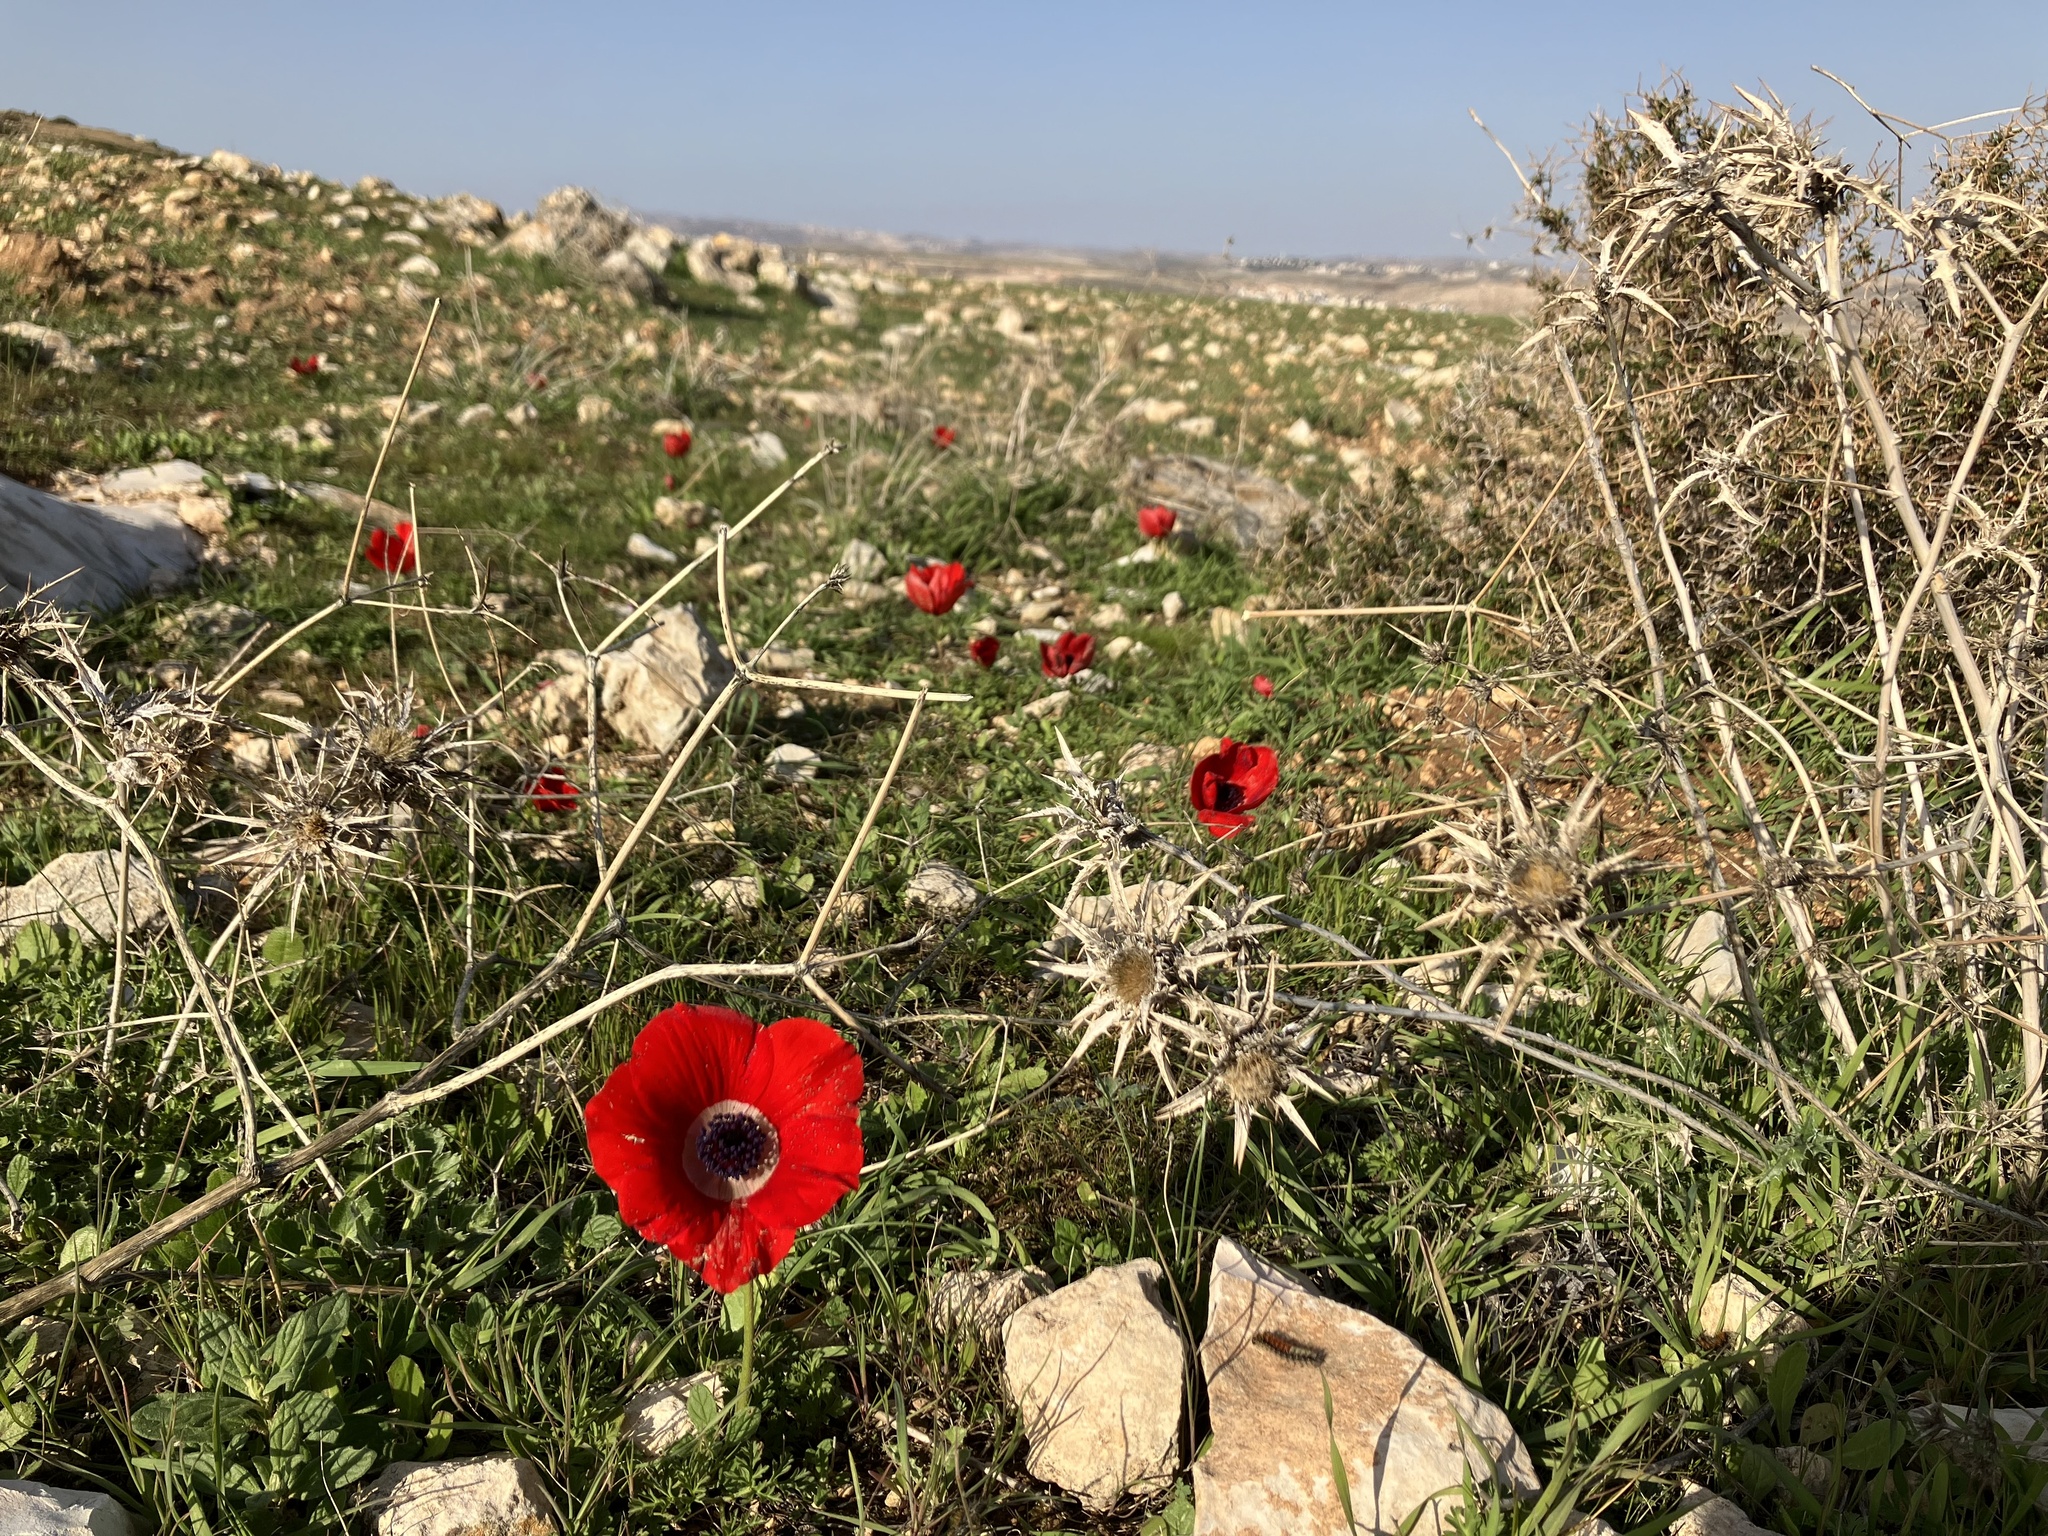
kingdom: Plantae
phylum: Tracheophyta
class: Magnoliopsida
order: Ranunculales
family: Ranunculaceae
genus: Anemone
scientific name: Anemone coronaria
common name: Poppy anemone
